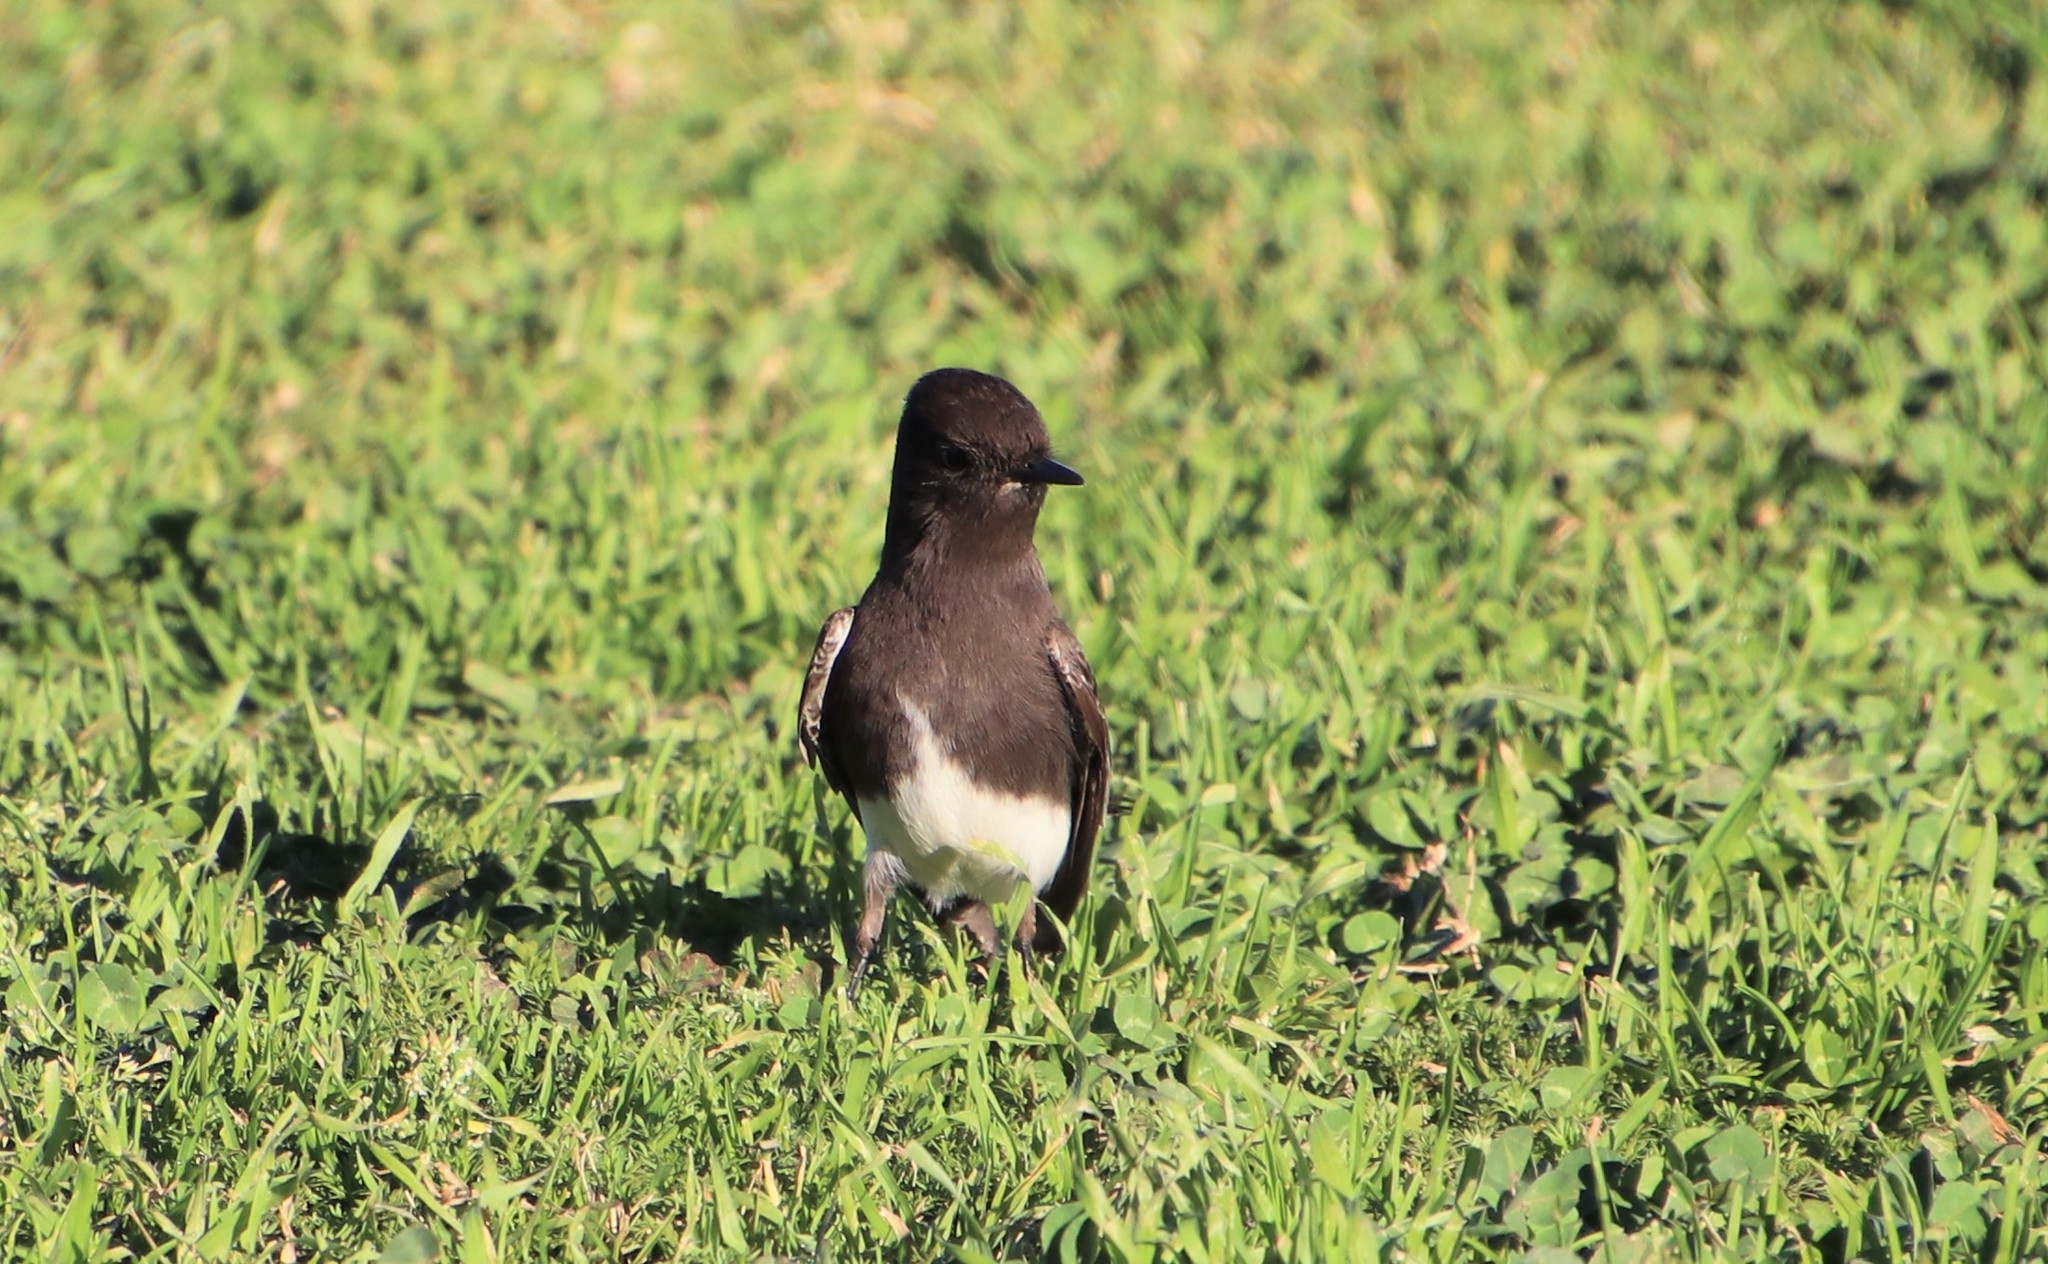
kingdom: Animalia
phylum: Chordata
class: Aves
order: Passeriformes
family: Tyrannidae
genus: Sayornis
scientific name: Sayornis nigricans
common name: Black phoebe
